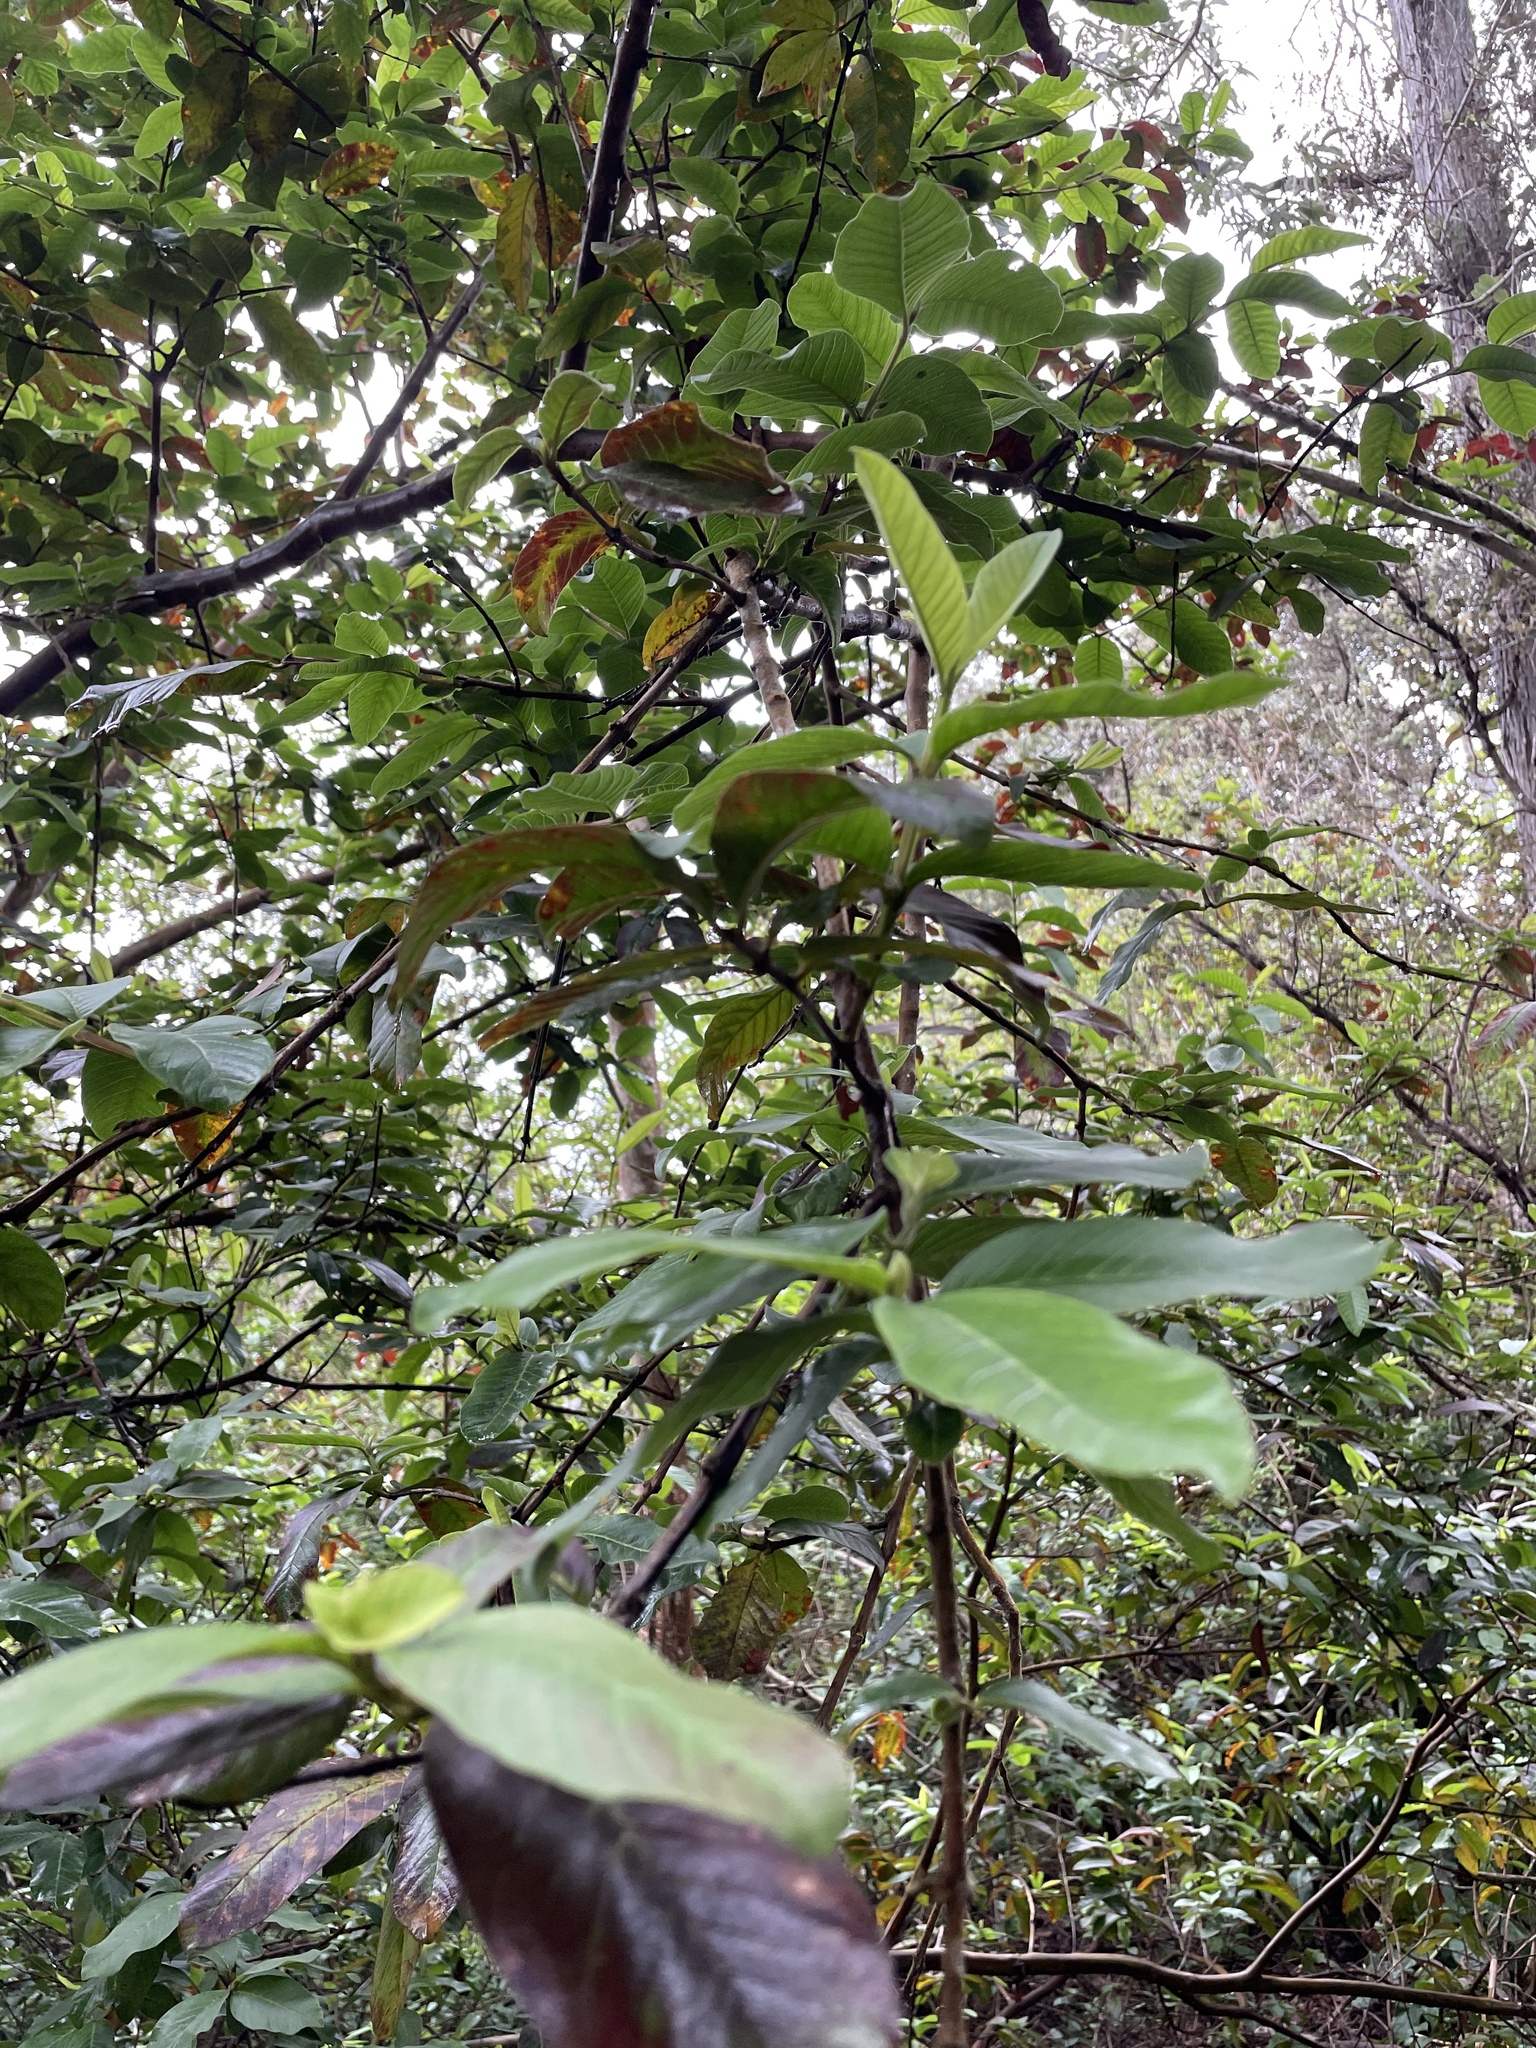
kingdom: Plantae
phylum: Tracheophyta
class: Magnoliopsida
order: Myrtales
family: Myrtaceae
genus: Psidium
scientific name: Psidium guajava
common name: Guava
